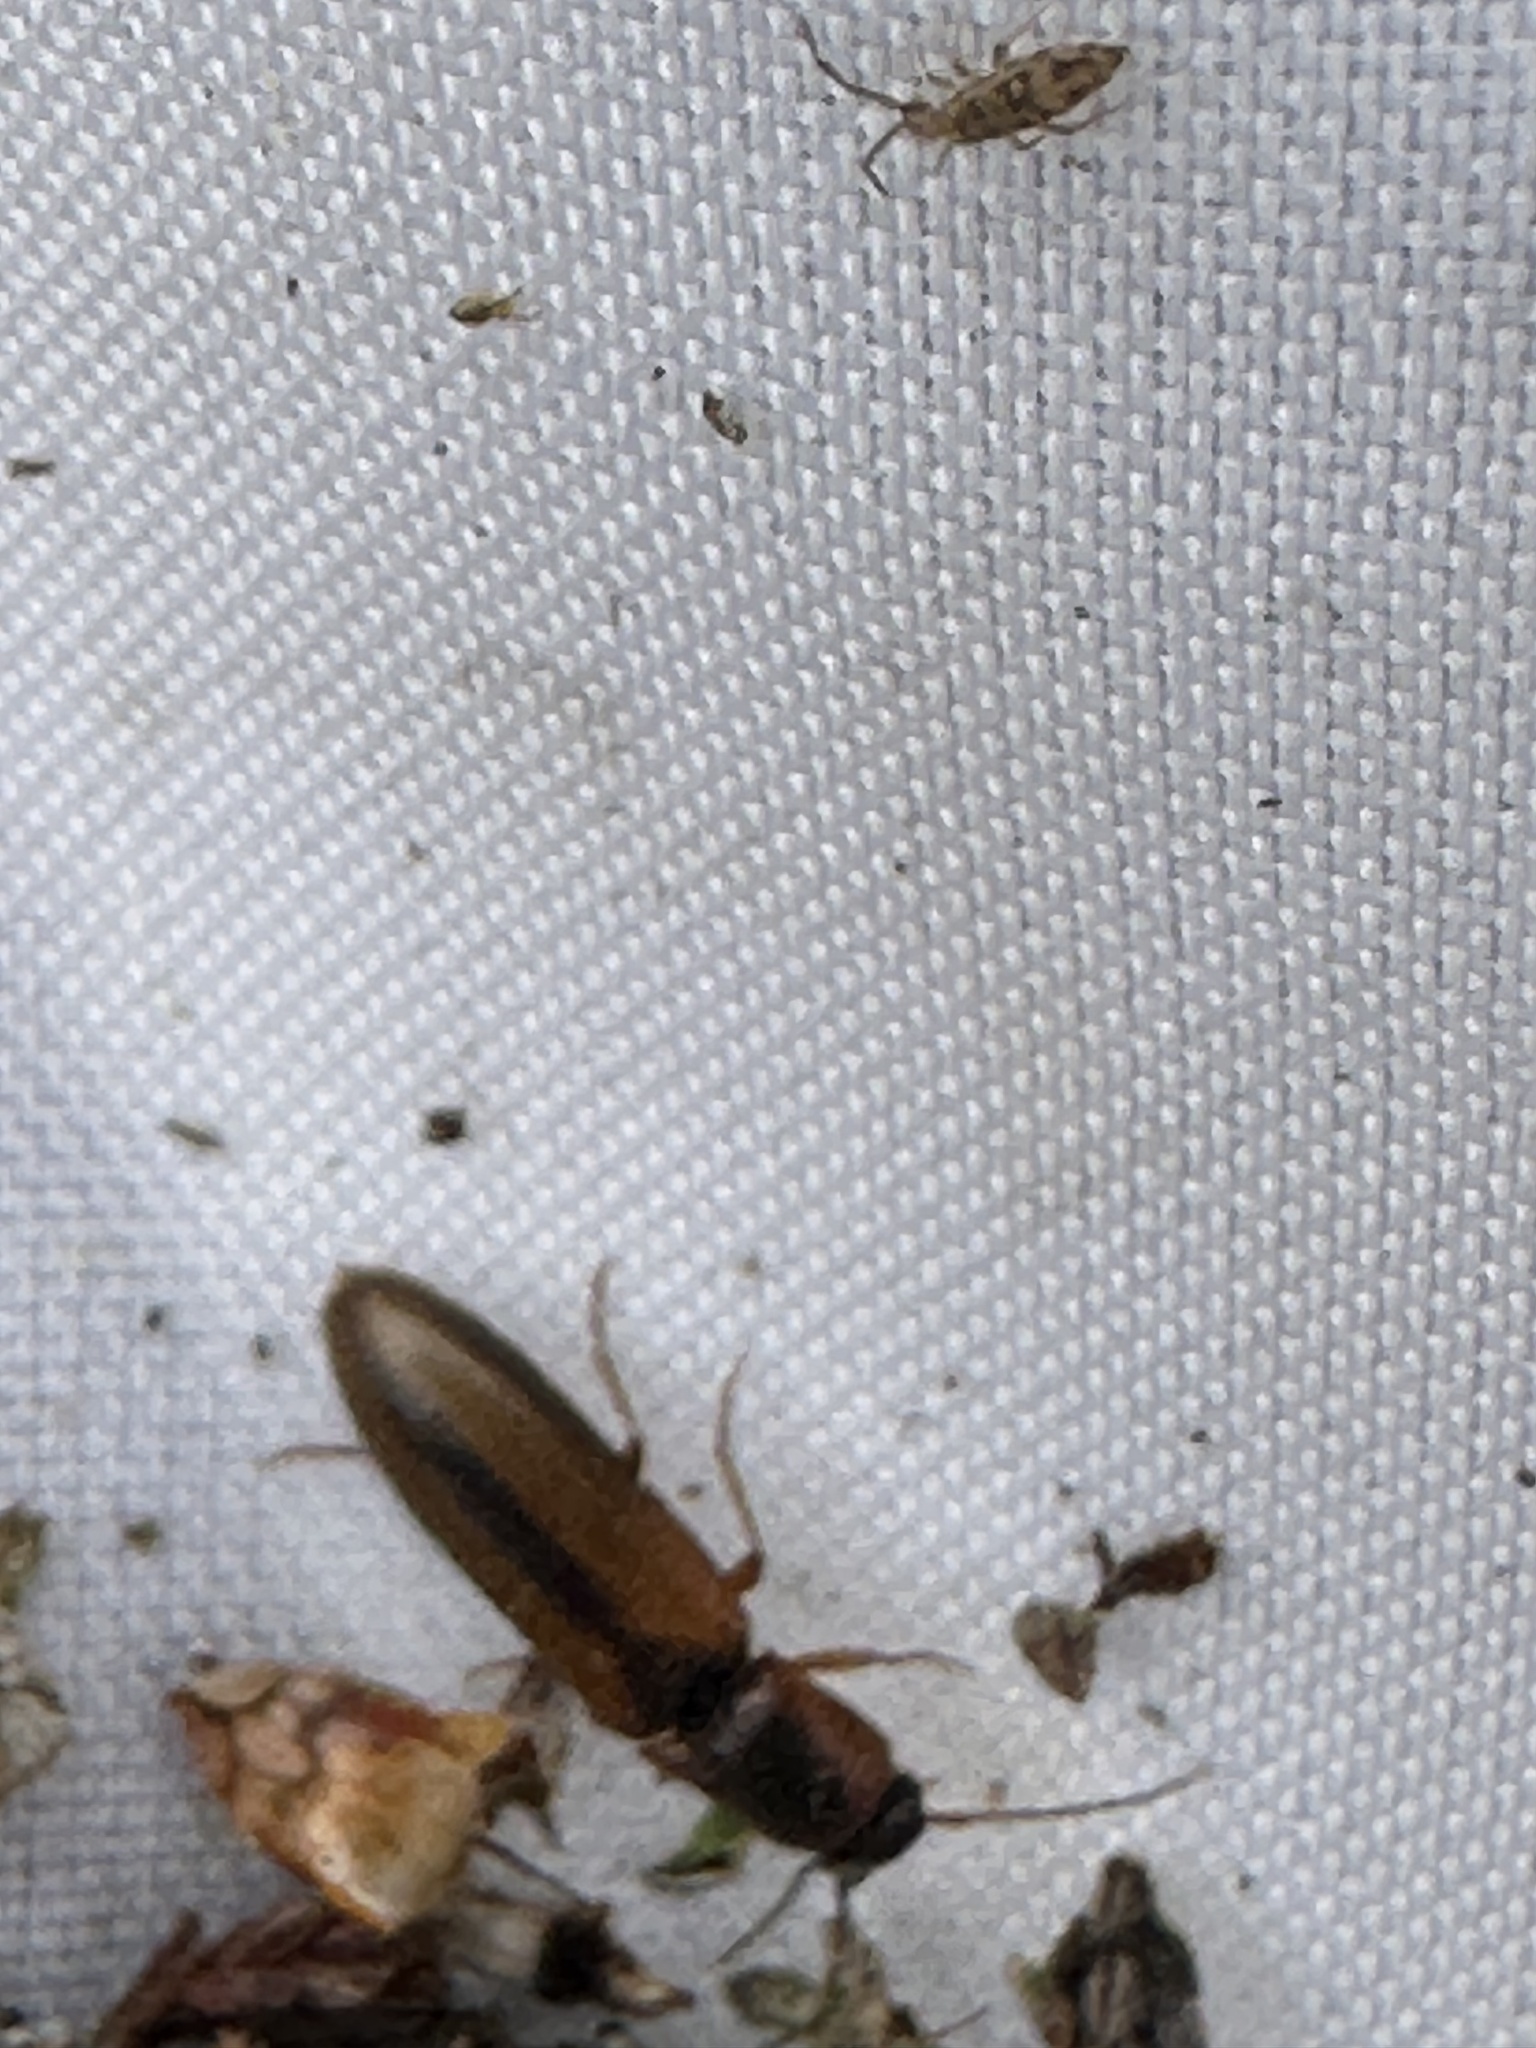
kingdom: Animalia
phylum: Arthropoda
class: Insecta
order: Coleoptera
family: Elateridae
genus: Dalopius
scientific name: Dalopius marginatus
